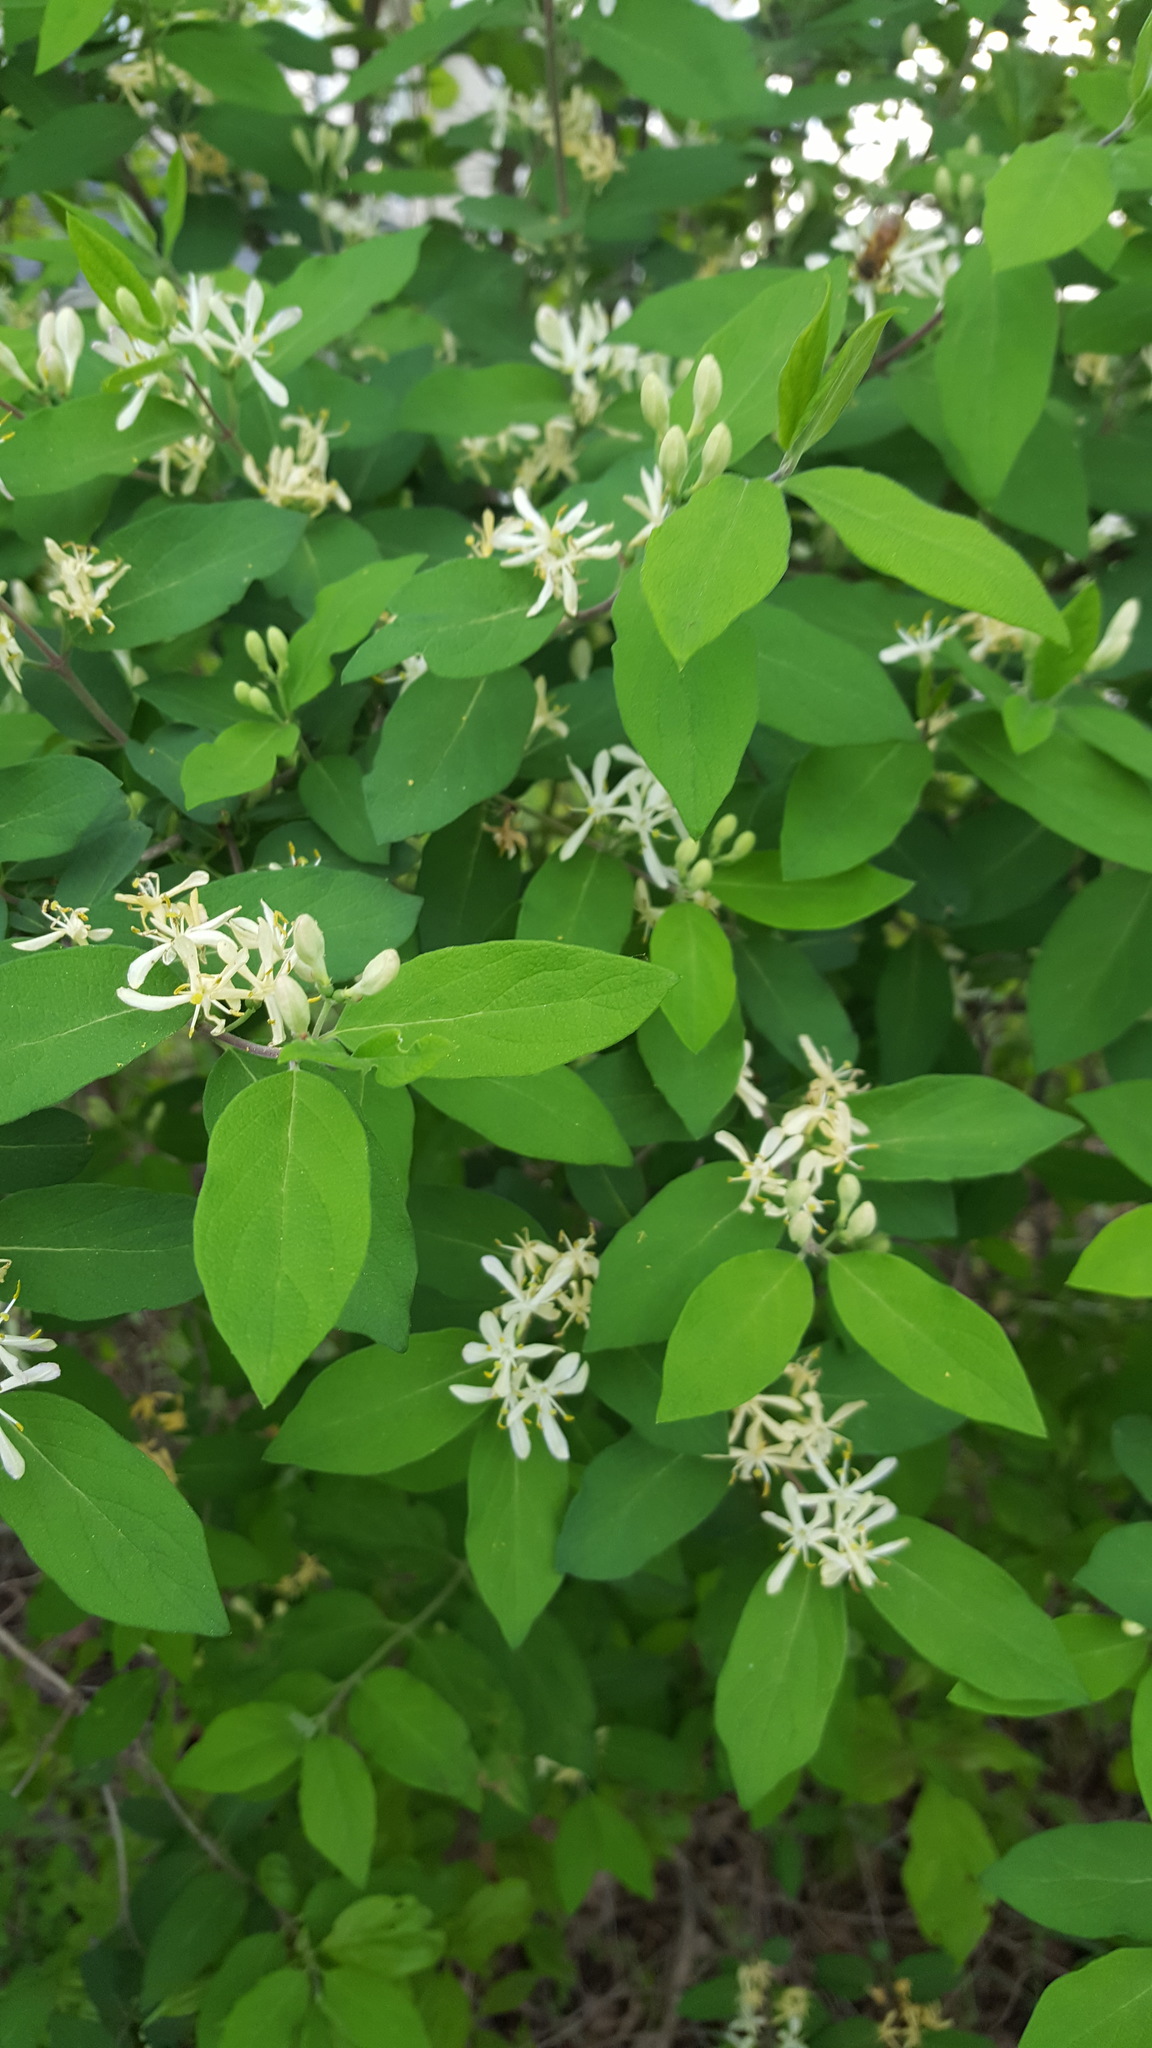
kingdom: Plantae
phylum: Tracheophyta
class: Magnoliopsida
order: Dipsacales
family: Caprifoliaceae
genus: Lonicera
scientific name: Lonicera morrowii
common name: Morrow's honeysuckle
